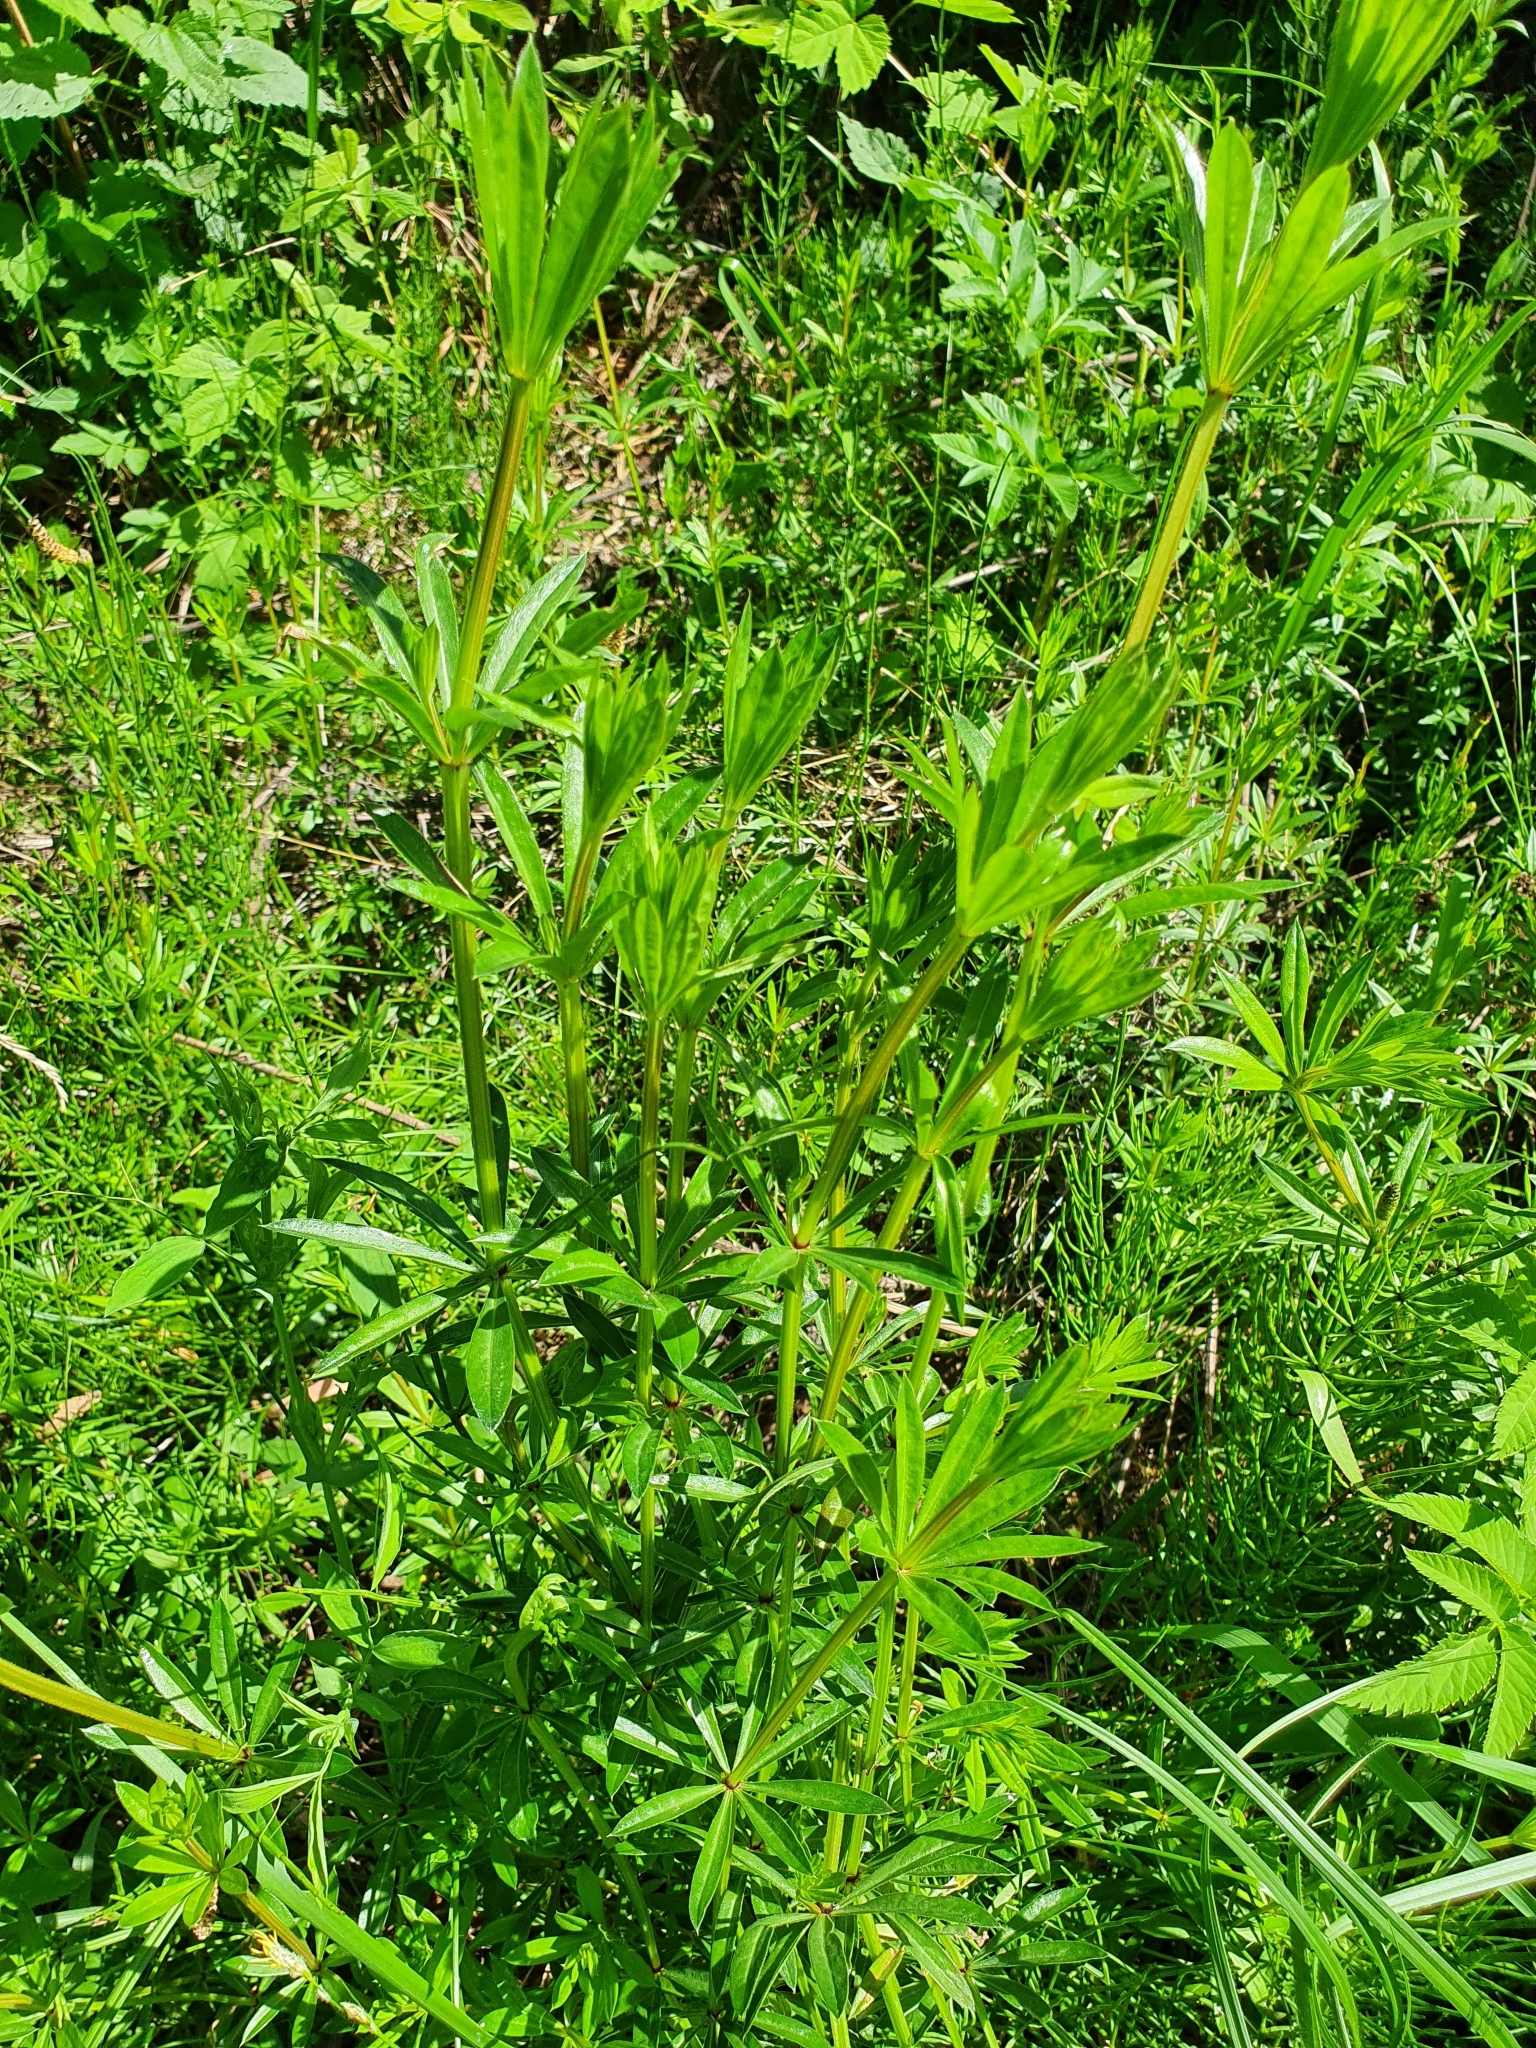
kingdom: Plantae
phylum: Tracheophyta
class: Magnoliopsida
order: Gentianales
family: Rubiaceae
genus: Galium
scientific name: Galium rivale
